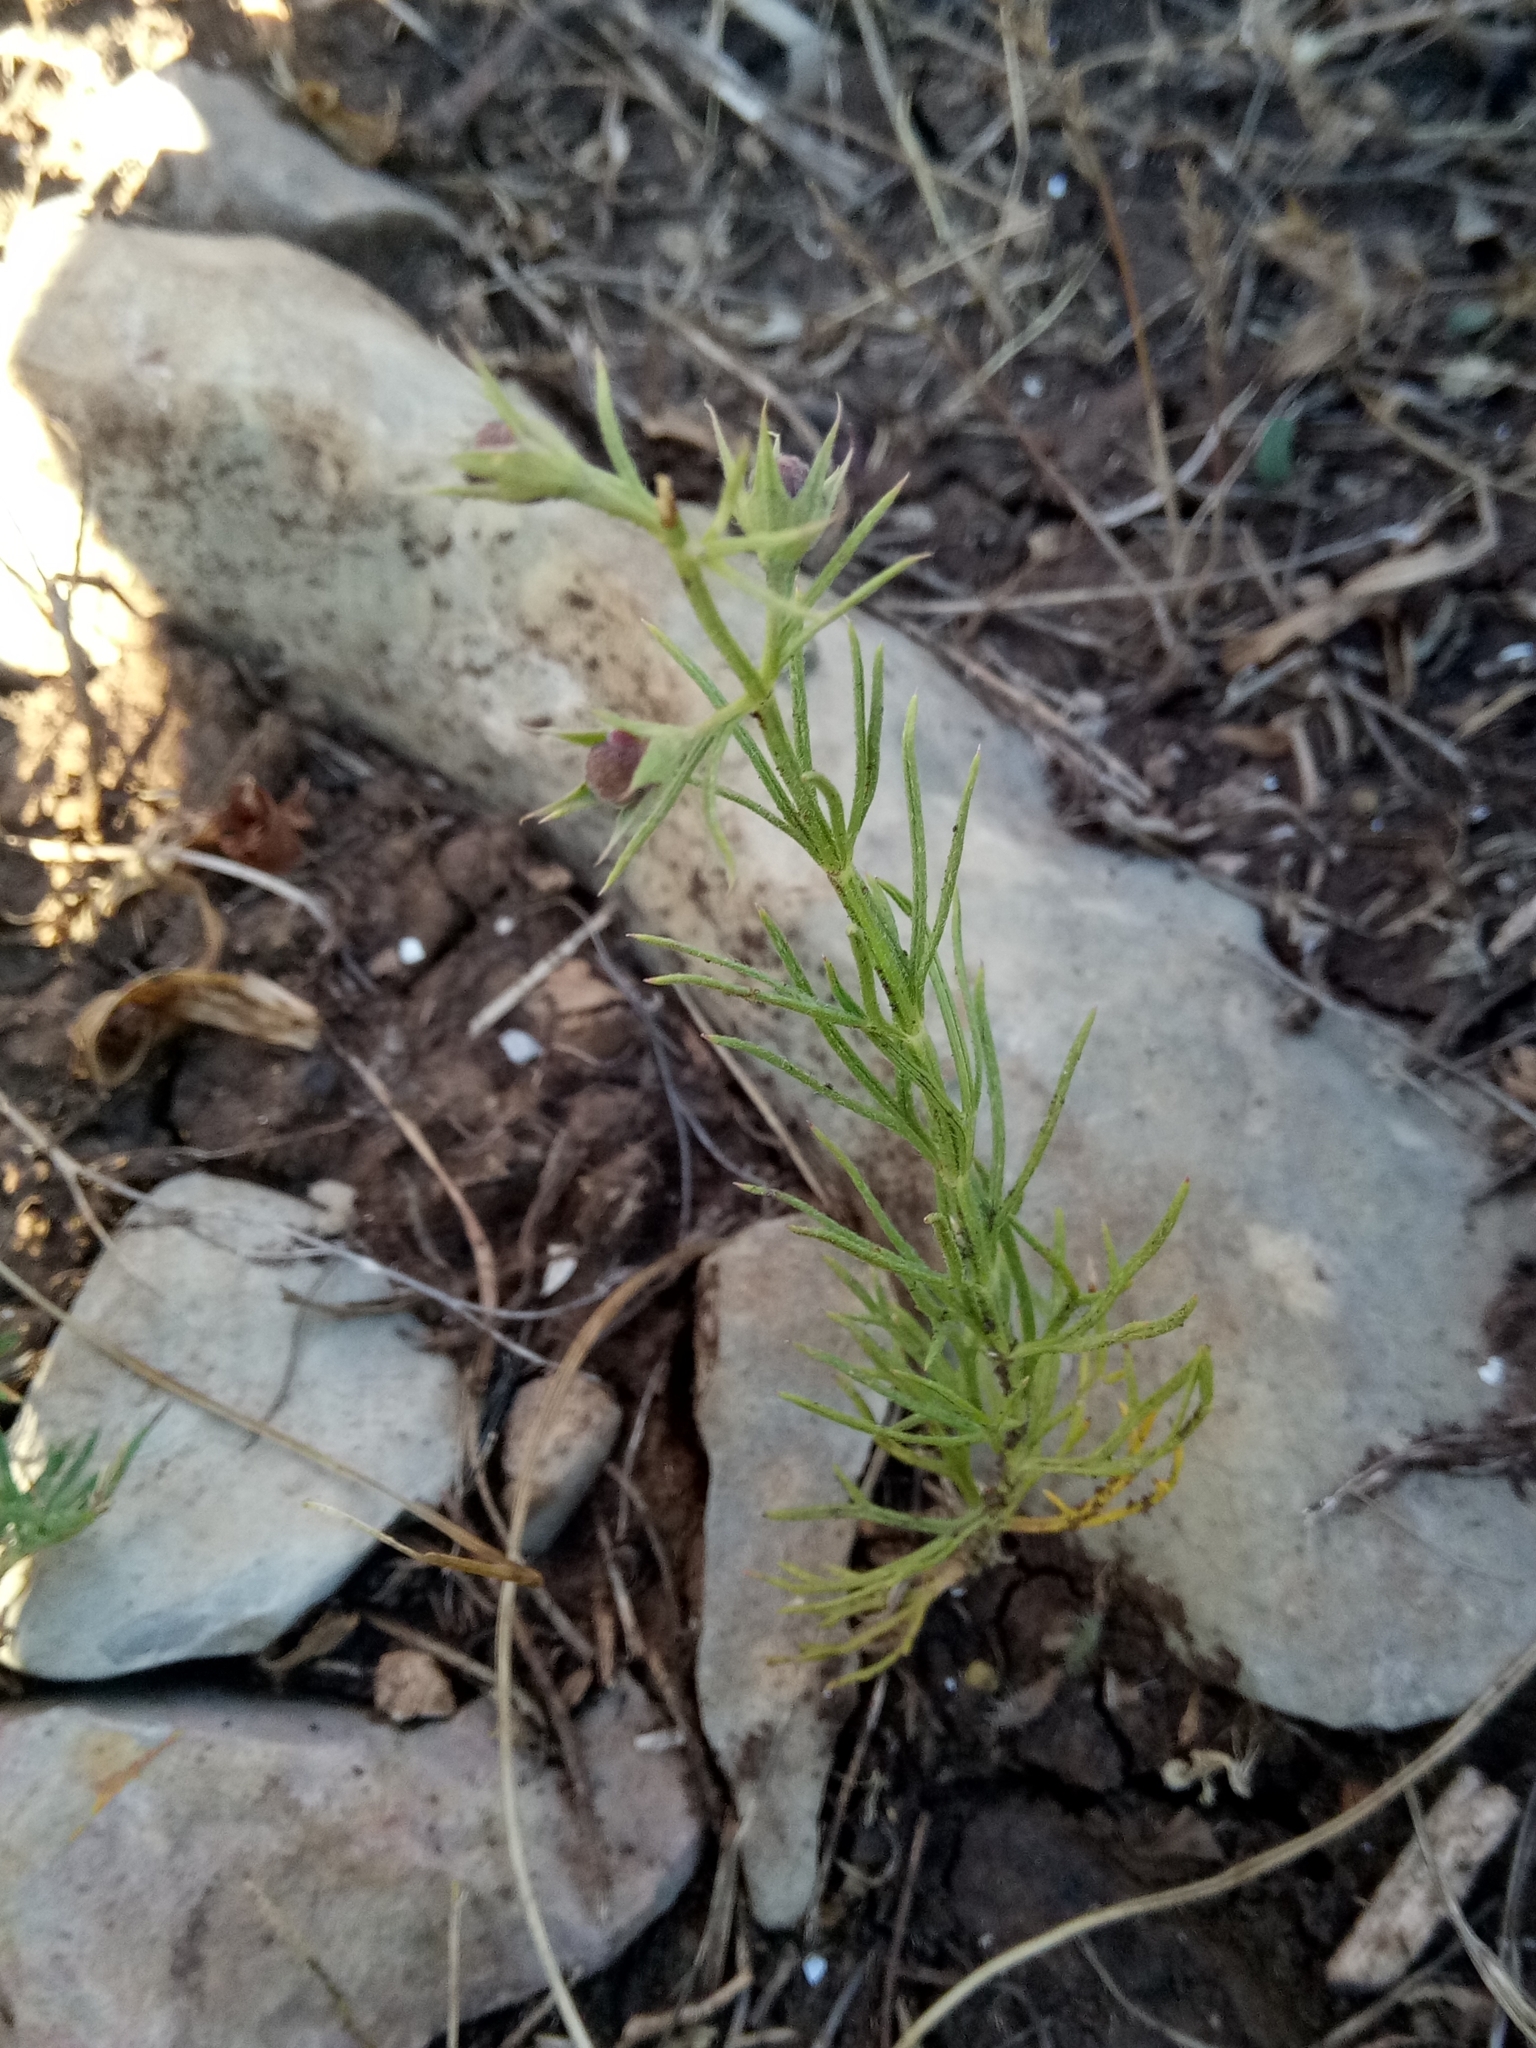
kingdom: Plantae
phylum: Tracheophyta
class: Magnoliopsida
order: Lamiales
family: Lamiaceae
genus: Teucrium
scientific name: Teucrium pseudochamaepitys
